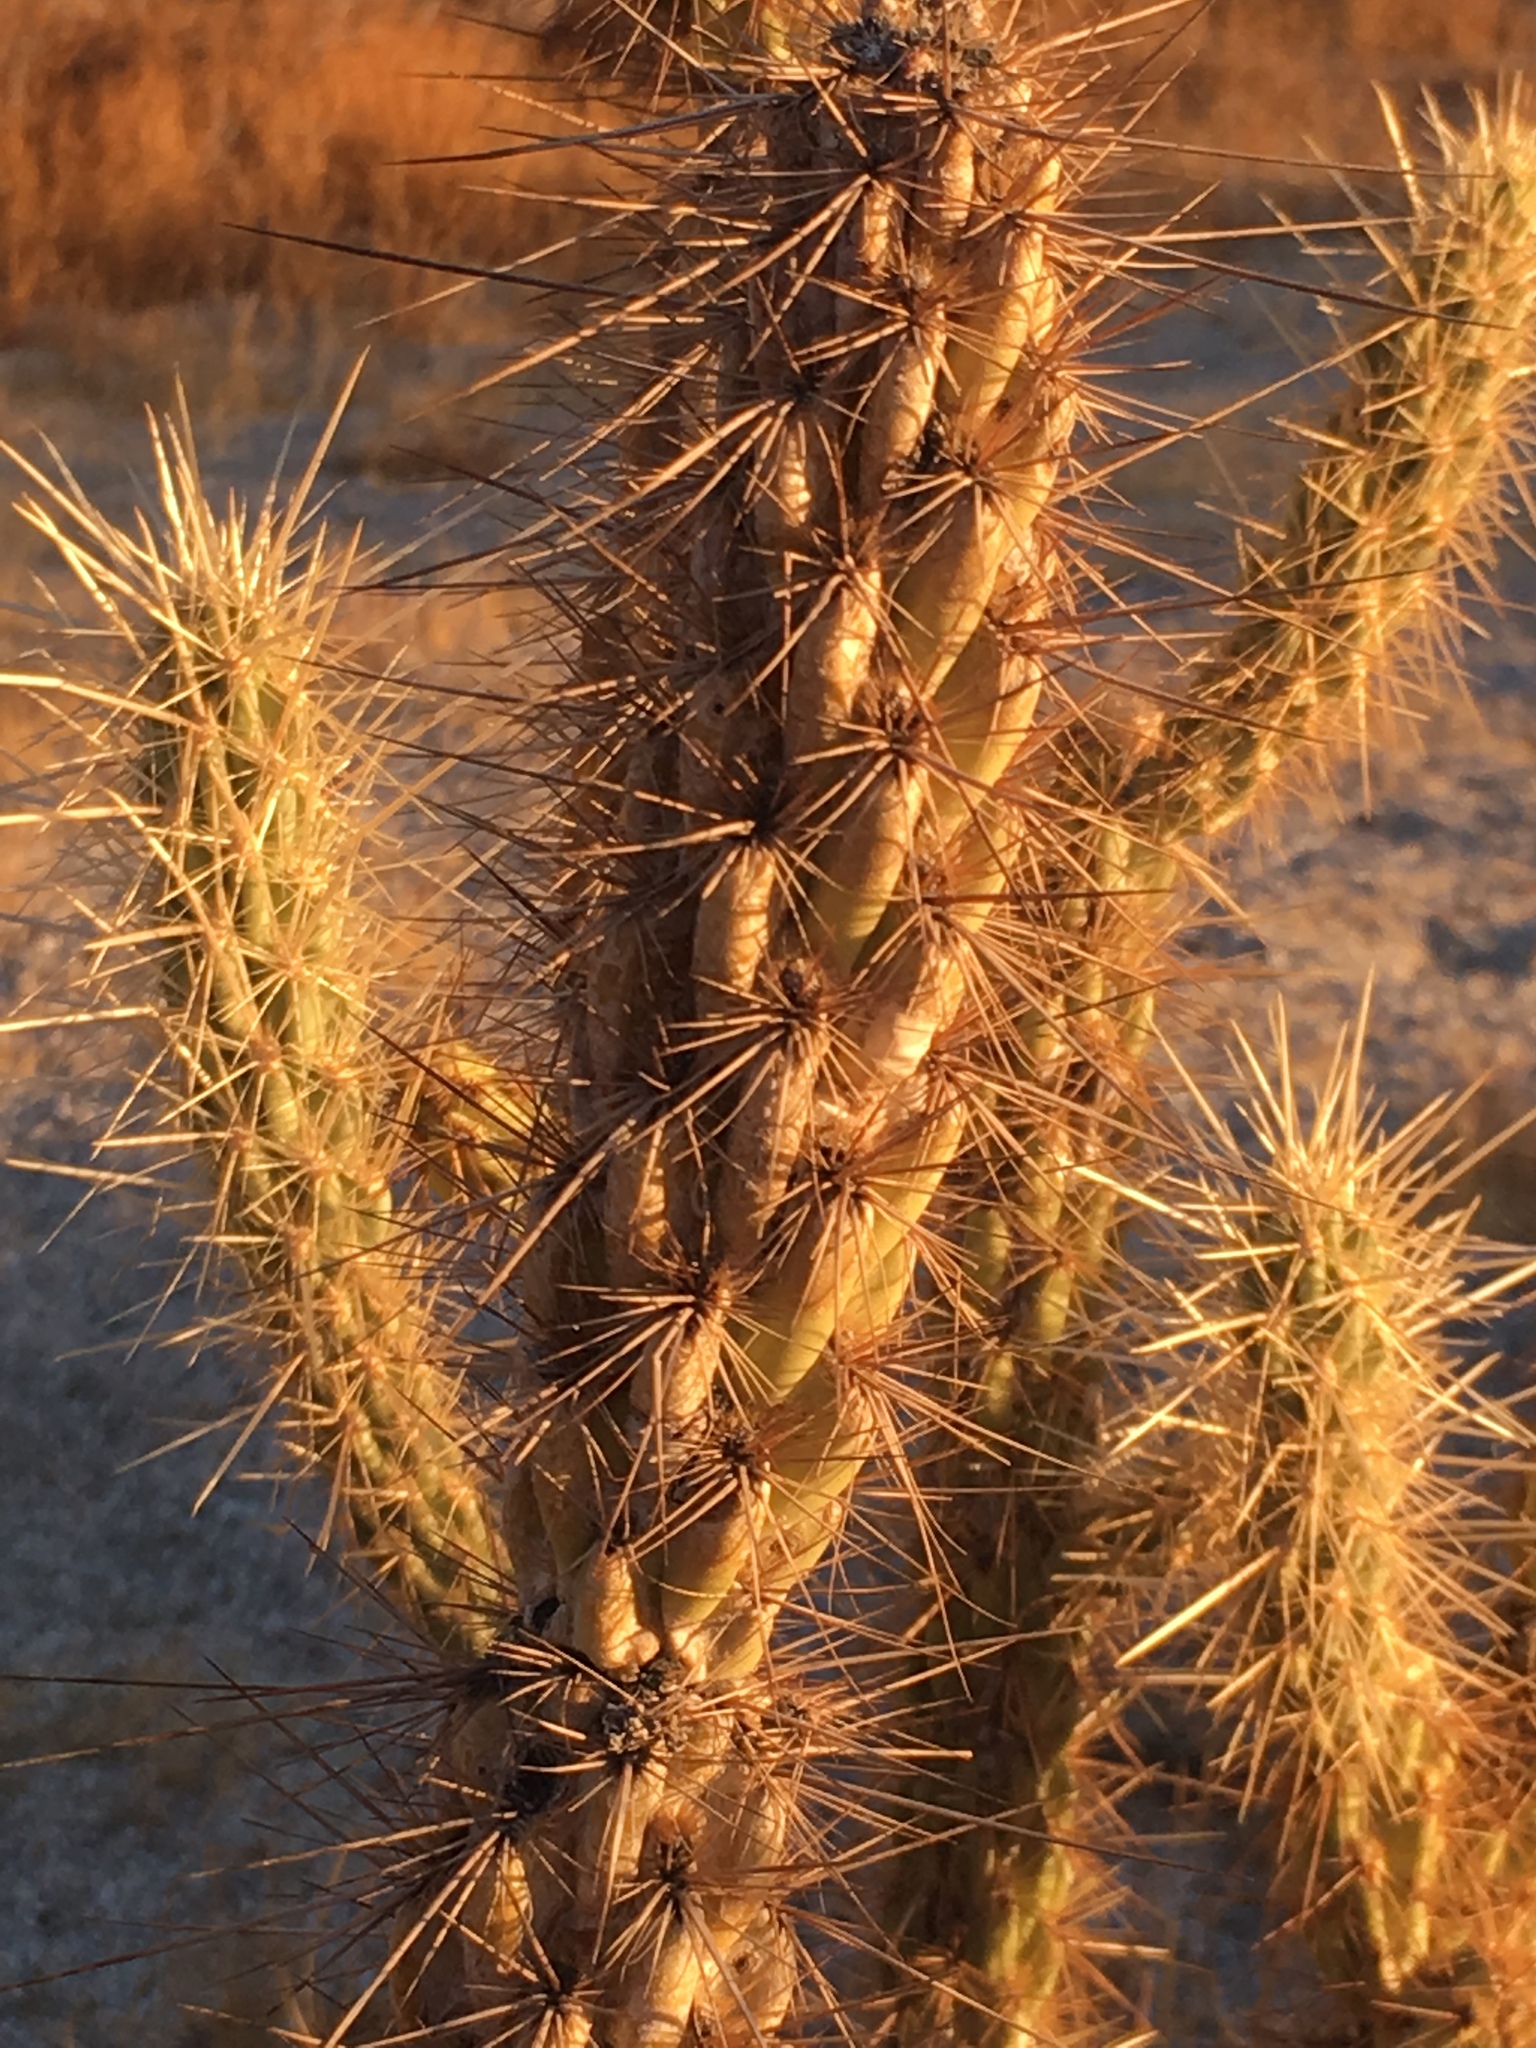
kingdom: Plantae
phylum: Tracheophyta
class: Magnoliopsida
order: Caryophyllales
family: Cactaceae
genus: Cylindropuntia
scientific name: Cylindropuntia ganderi
